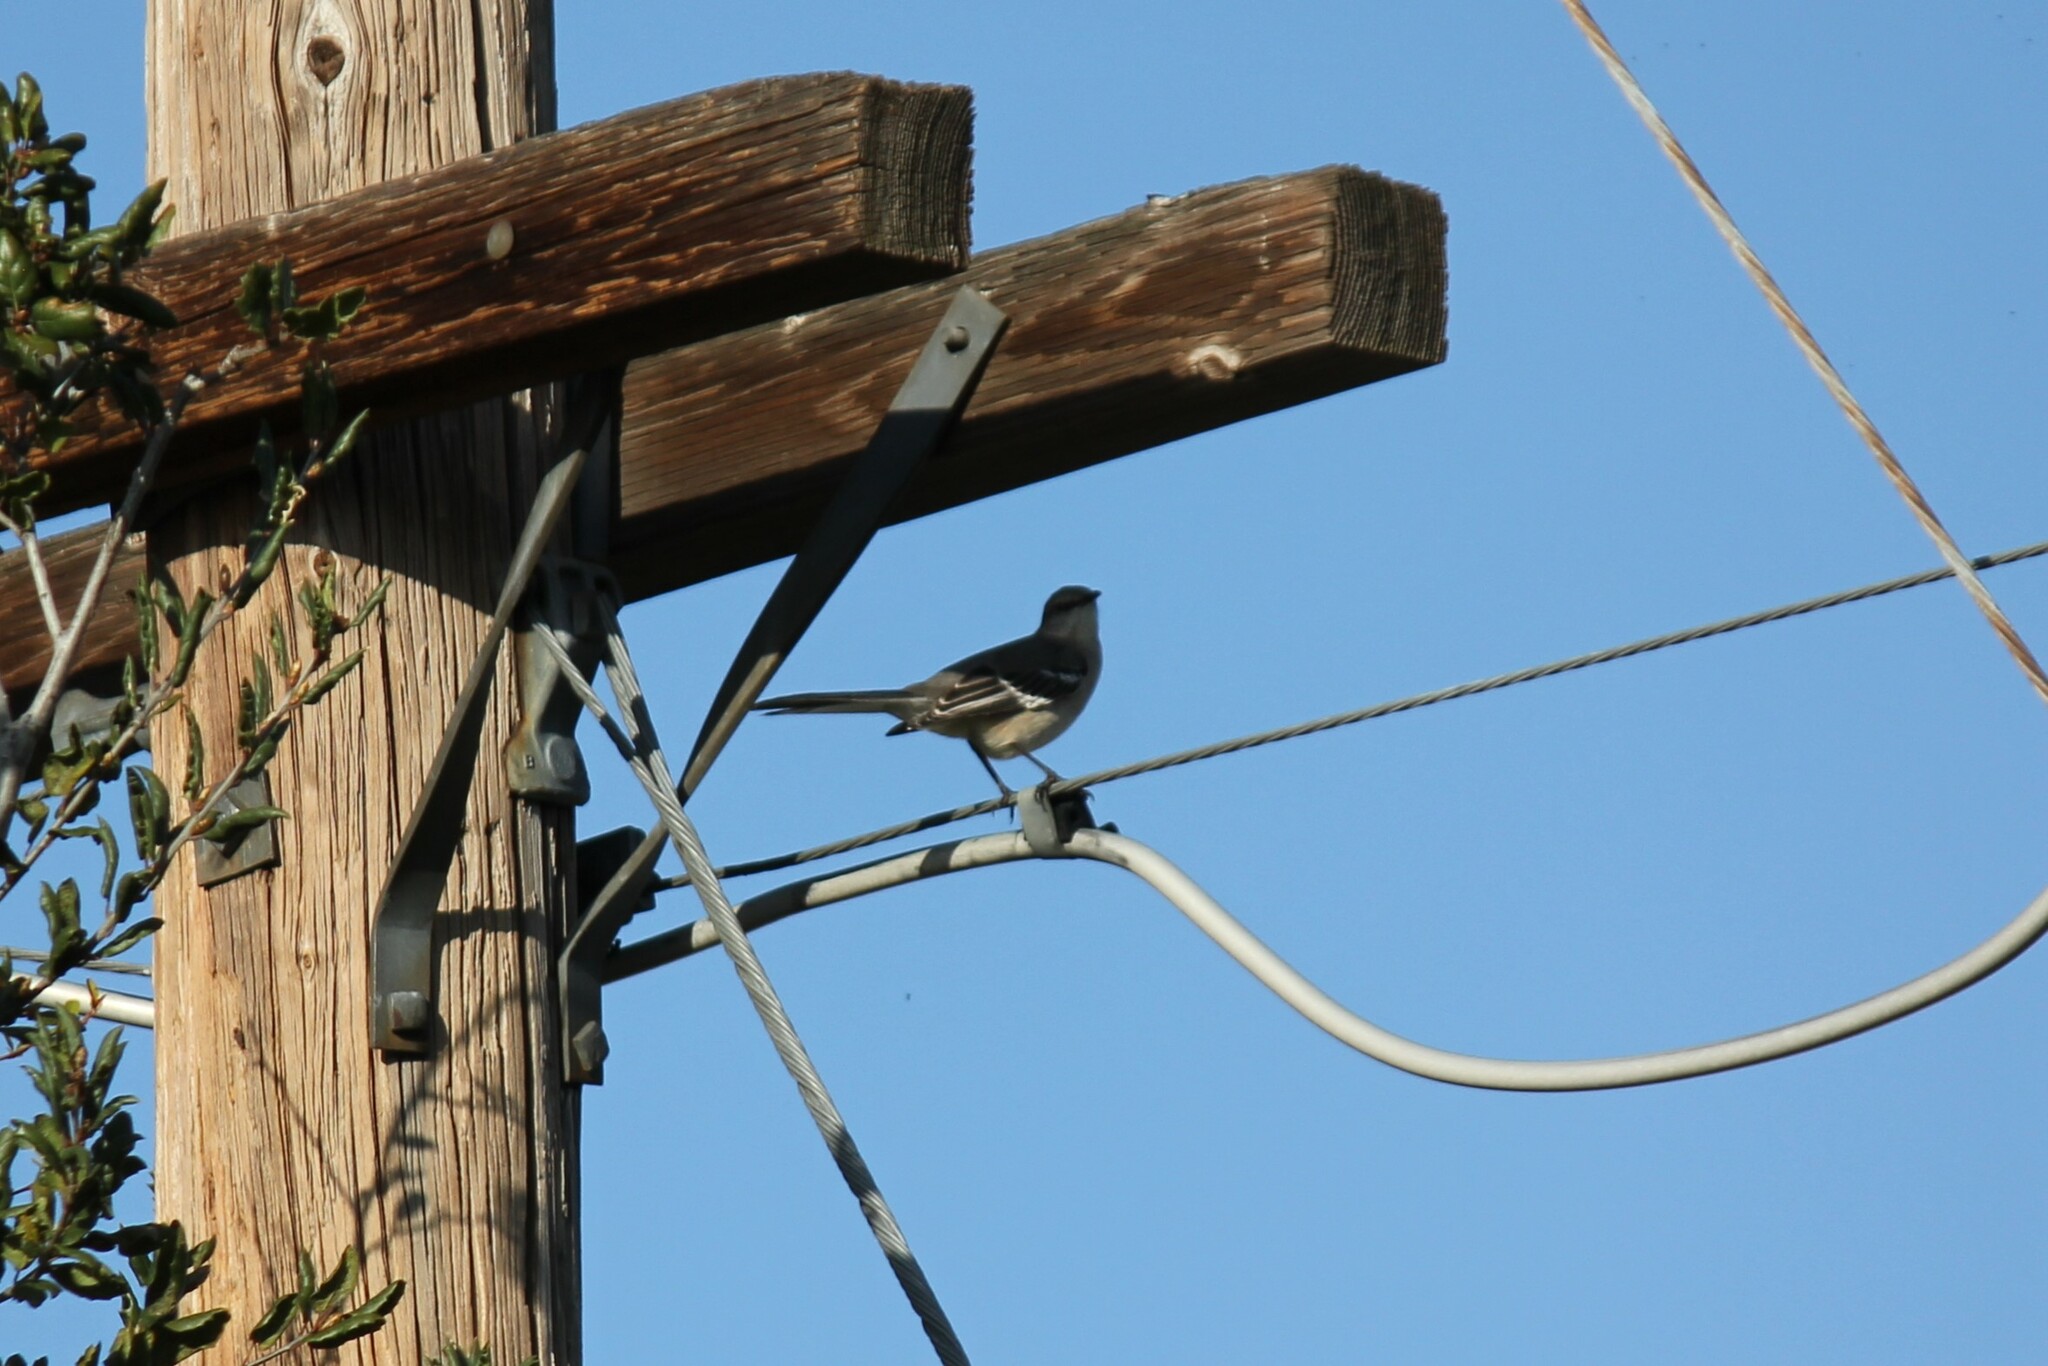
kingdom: Animalia
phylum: Chordata
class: Aves
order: Passeriformes
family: Mimidae
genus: Mimus
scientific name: Mimus polyglottos
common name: Northern mockingbird
